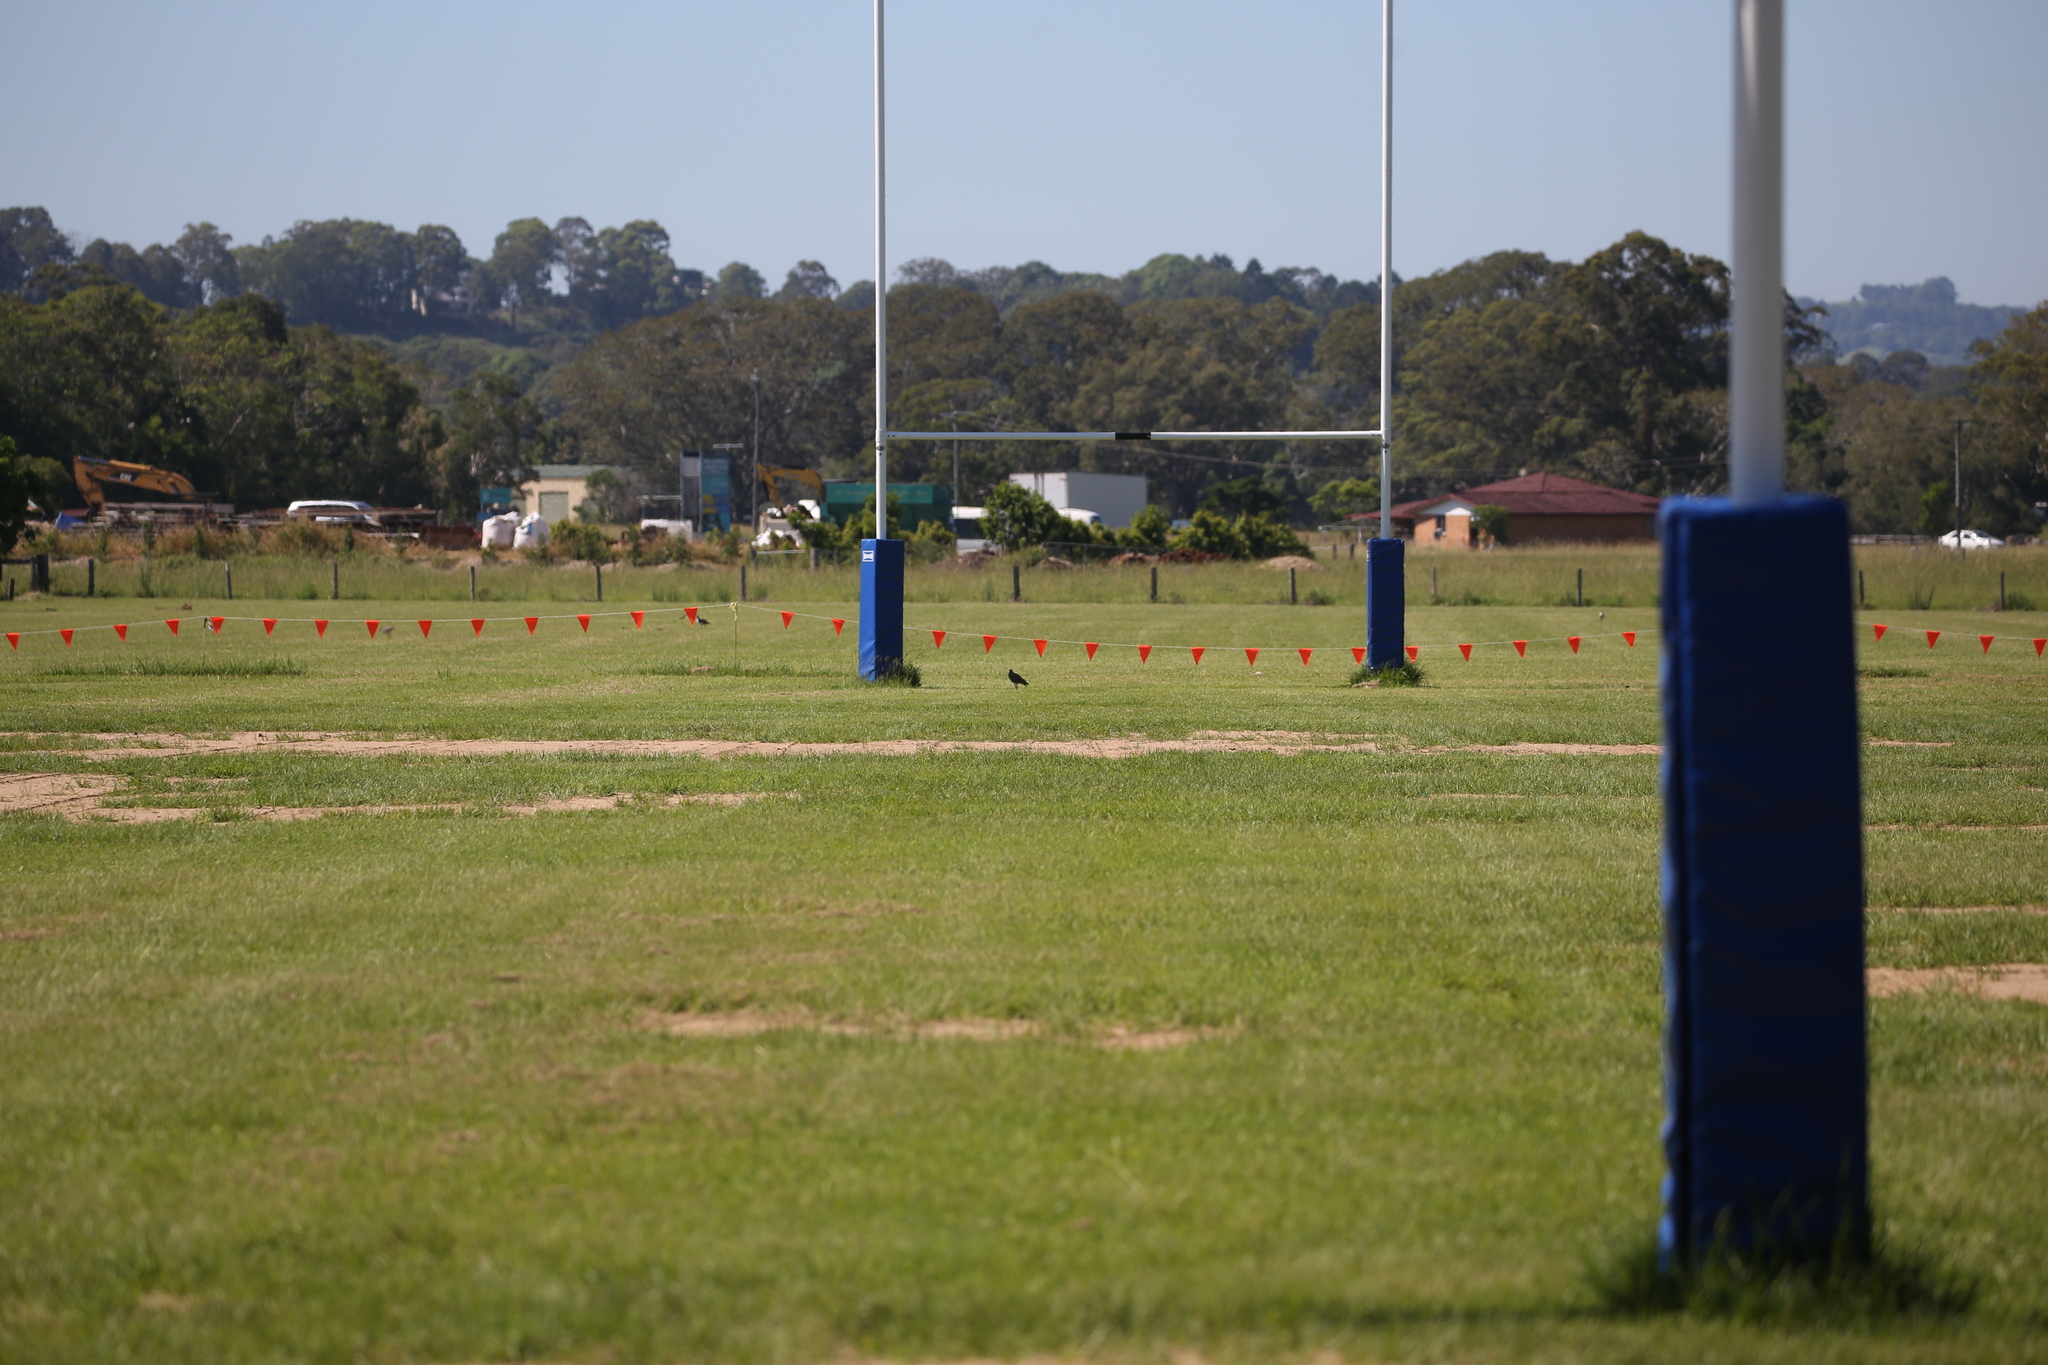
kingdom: Animalia
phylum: Chordata
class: Aves
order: Charadriiformes
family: Charadriidae
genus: Vanellus
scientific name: Vanellus miles
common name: Masked lapwing
